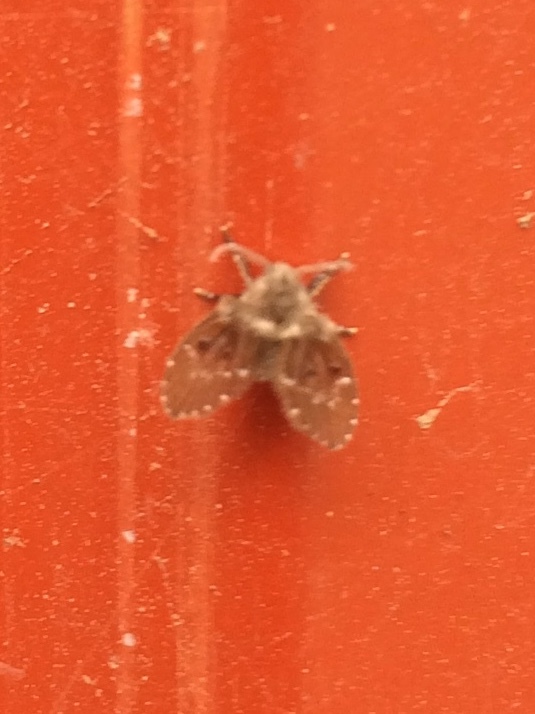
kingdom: Animalia
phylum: Arthropoda
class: Insecta
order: Diptera
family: Psychodidae
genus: Clogmia
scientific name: Clogmia albipunctatus
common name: White-spotted moth fly
